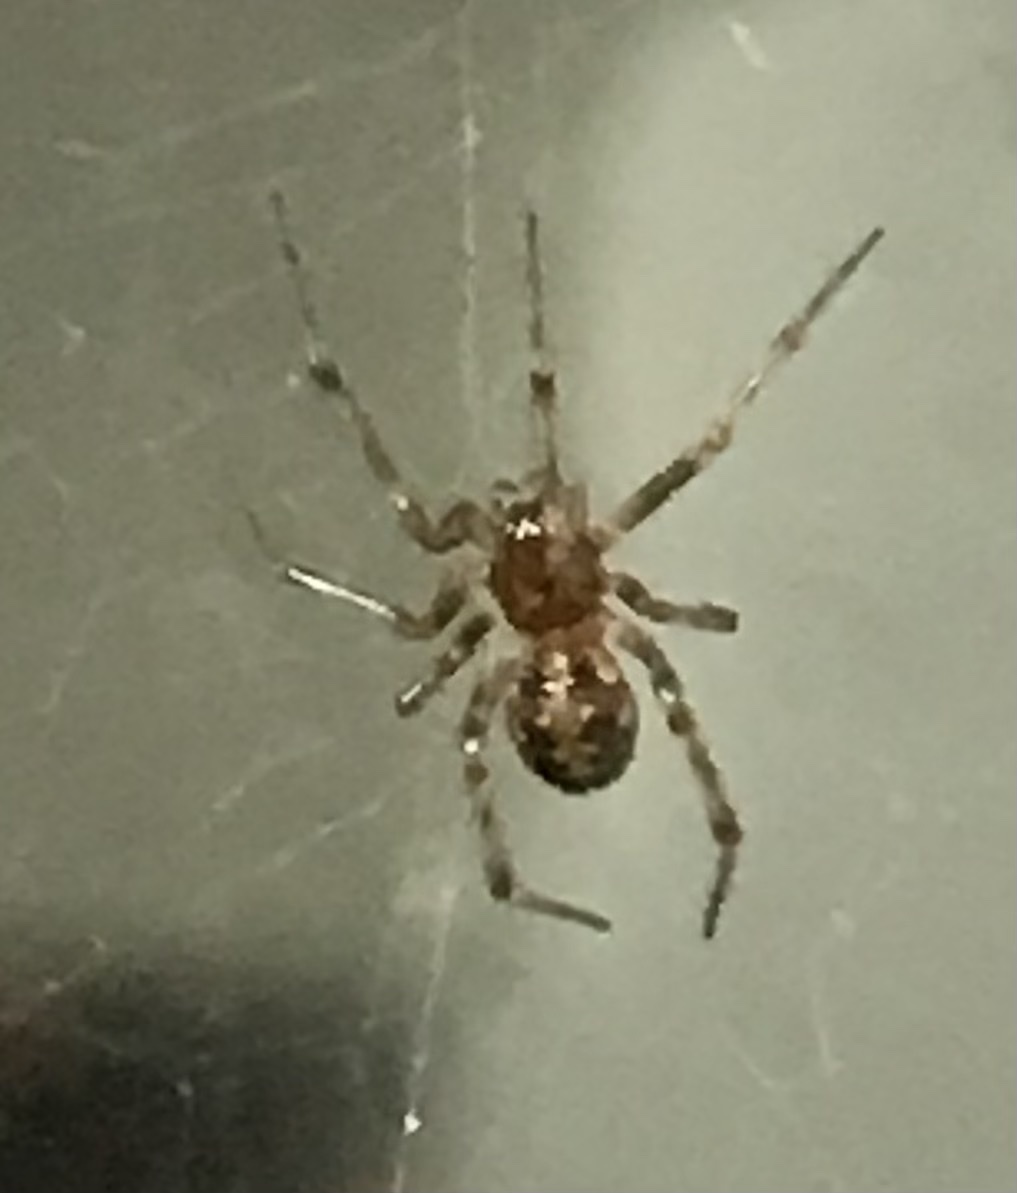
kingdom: Animalia
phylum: Arthropoda
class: Arachnida
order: Araneae
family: Theridiidae
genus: Steatoda
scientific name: Steatoda triangulosa
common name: Triangulate bud spider
